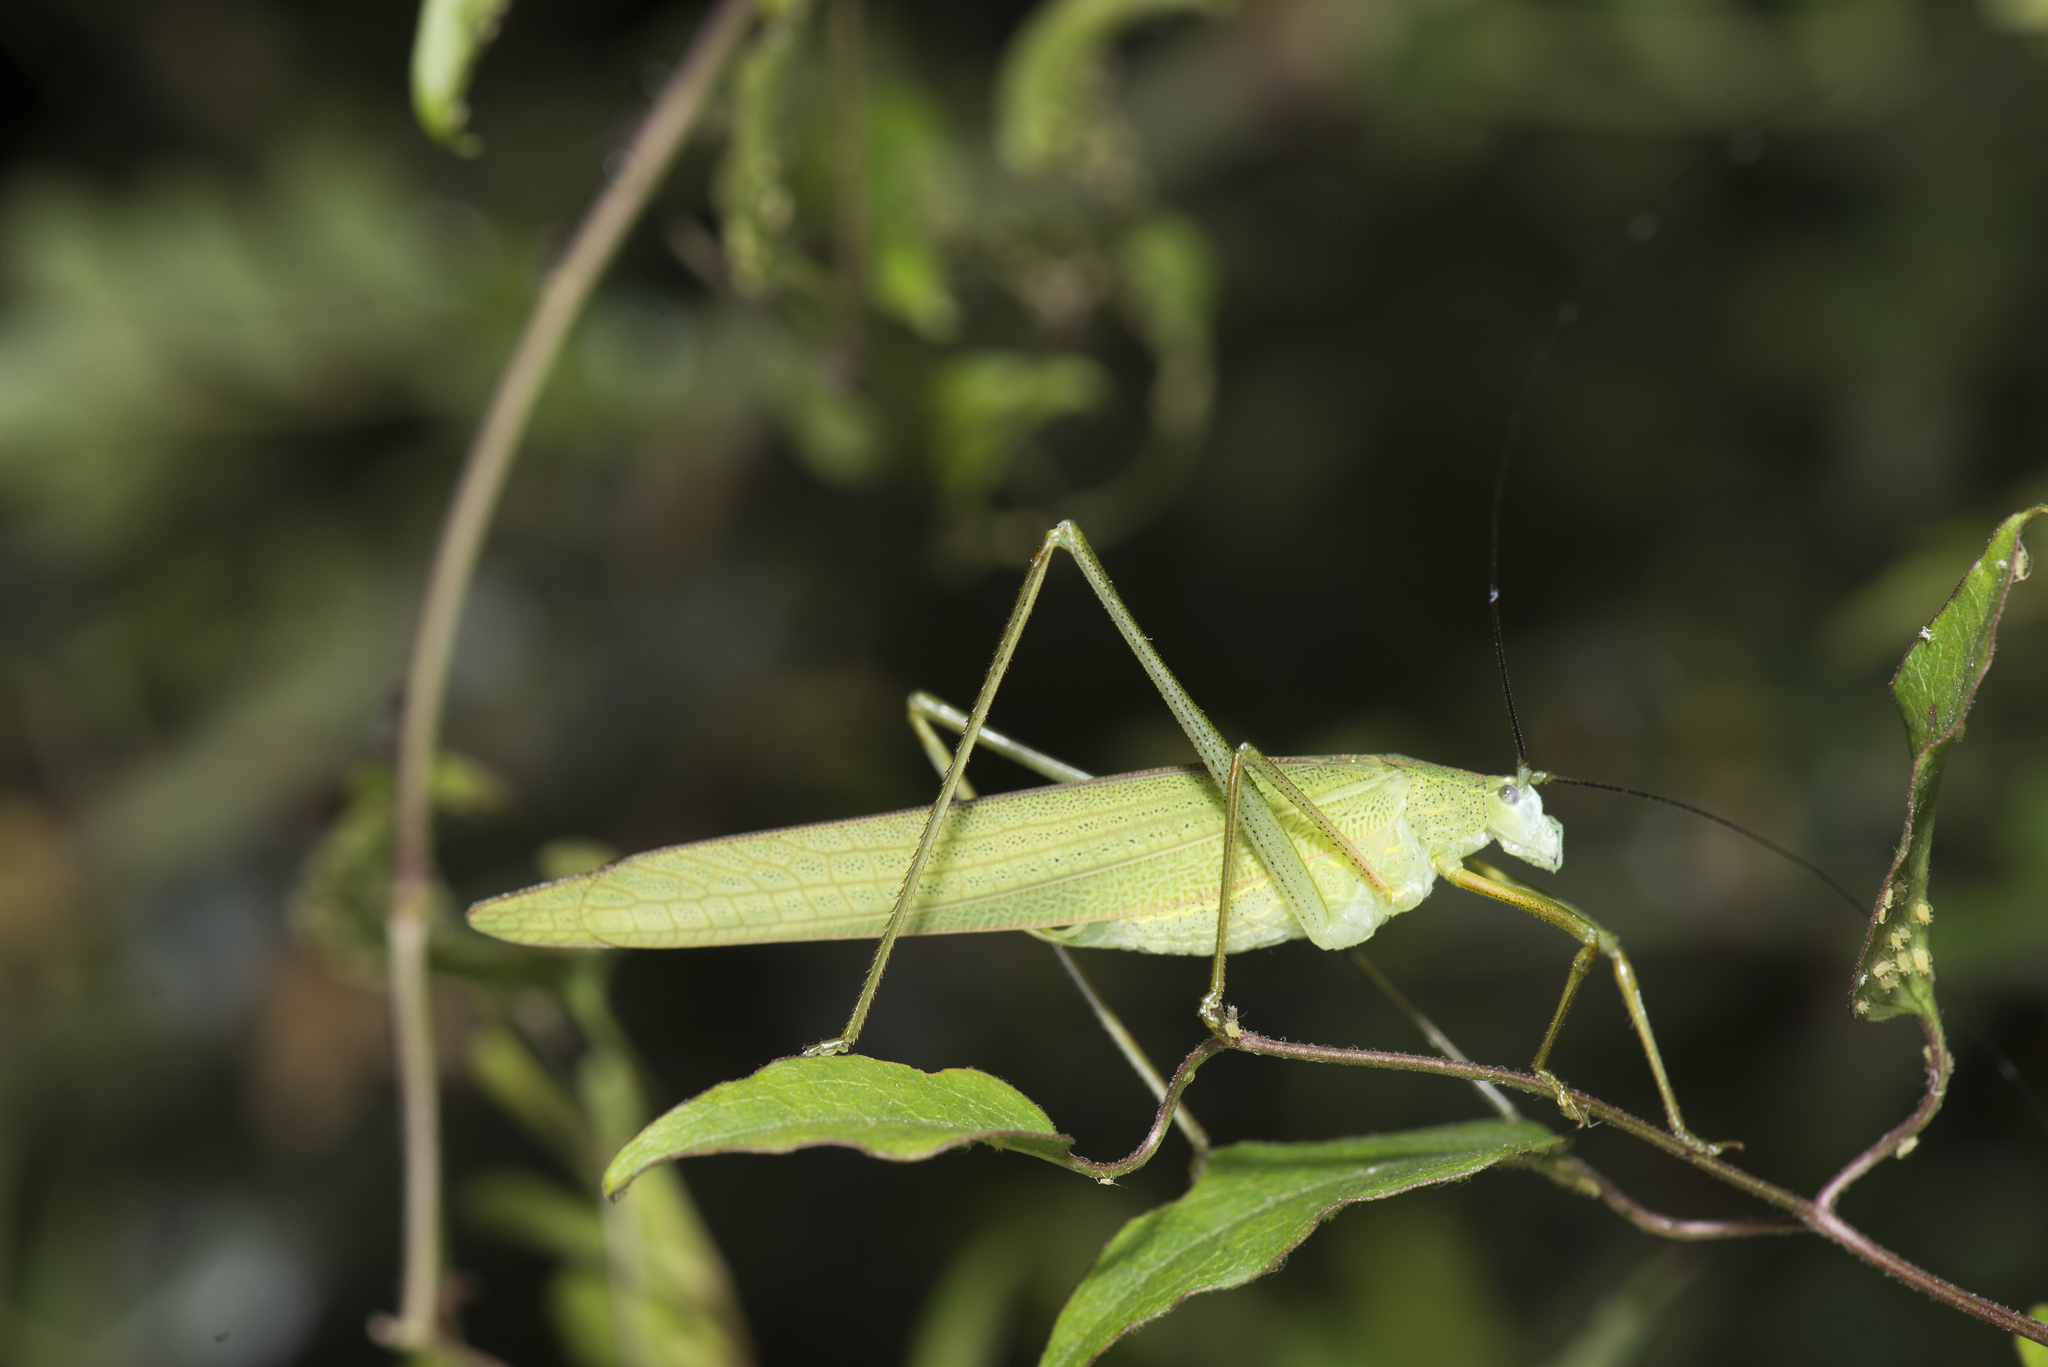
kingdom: Animalia
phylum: Arthropoda
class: Insecta
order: Orthoptera
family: Tettigoniidae
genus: Ducetia
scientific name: Ducetia japonica
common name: Pacific ducetia
